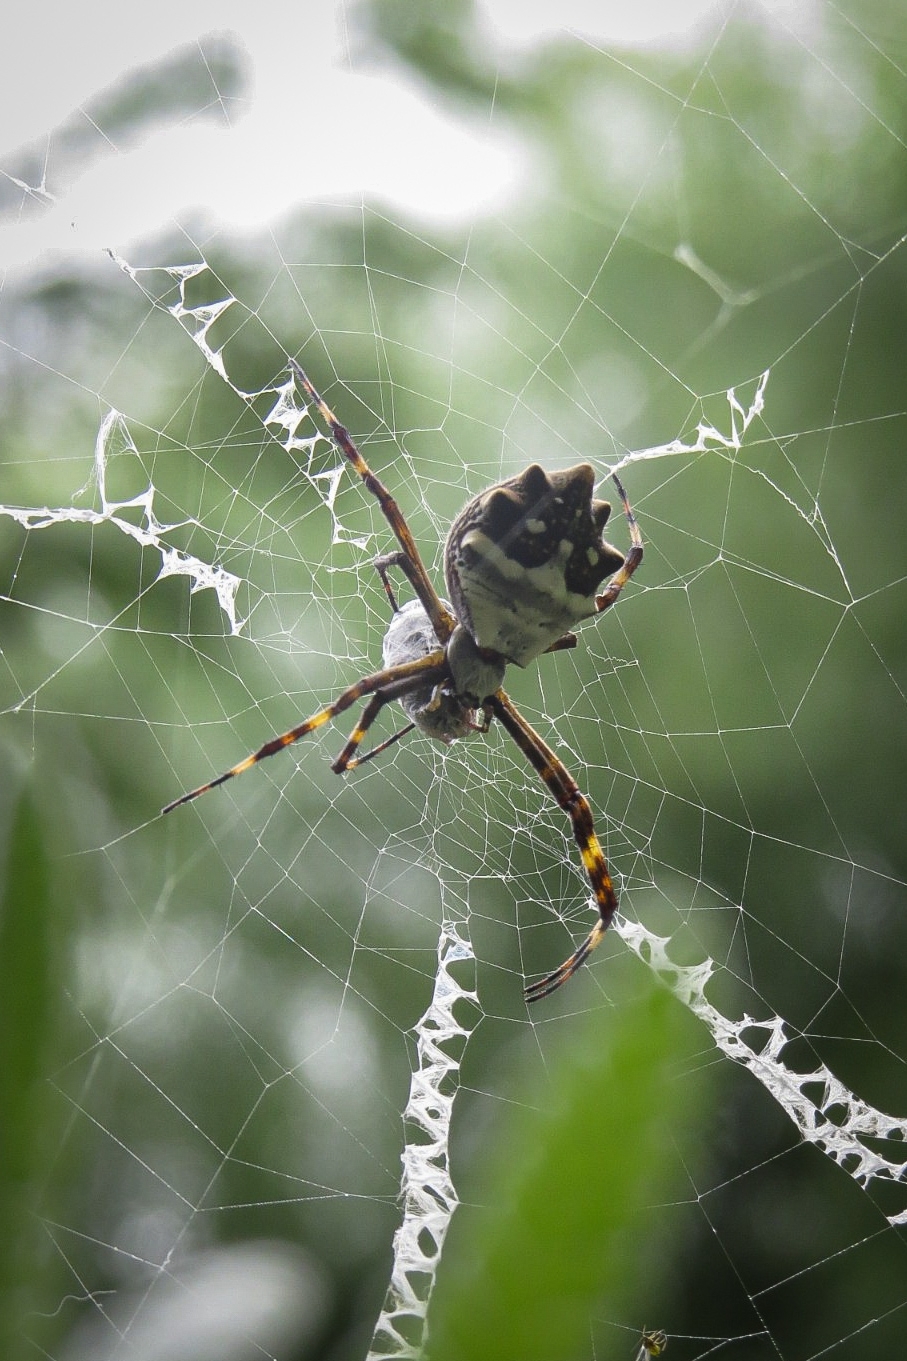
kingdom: Animalia
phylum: Arthropoda
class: Arachnida
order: Araneae
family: Araneidae
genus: Argiope
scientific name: Argiope argentata
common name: Orb weavers
